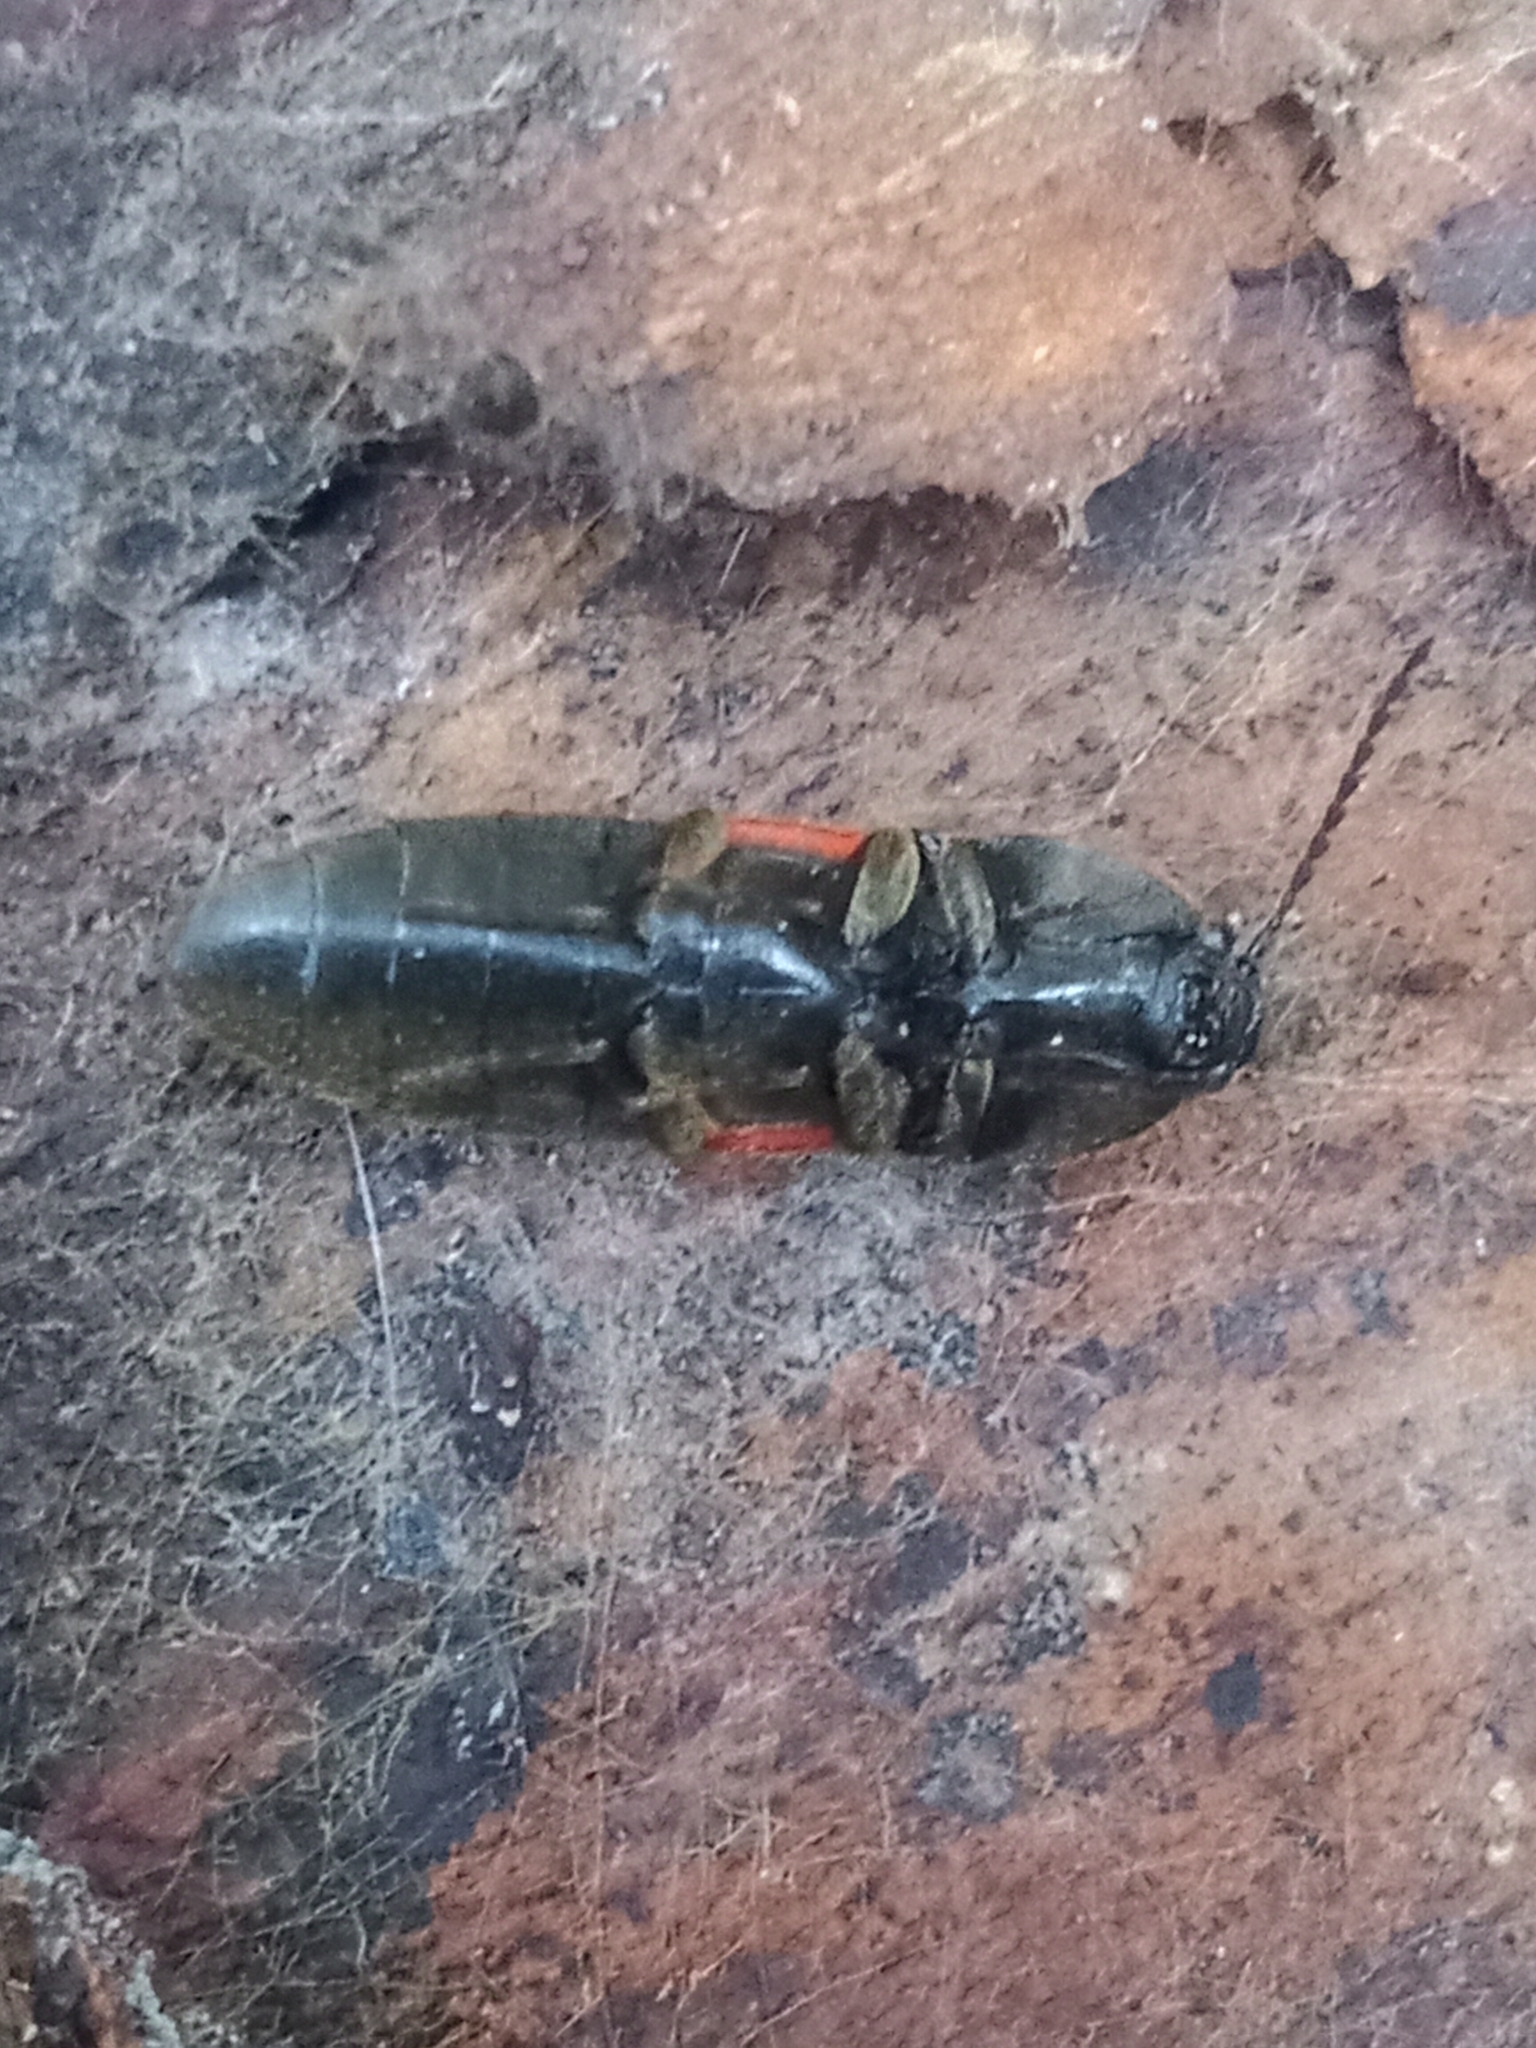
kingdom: Animalia
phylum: Arthropoda
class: Insecta
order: Coleoptera
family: Elateridae
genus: Ampedus
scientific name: Ampedus sanguinolentus
